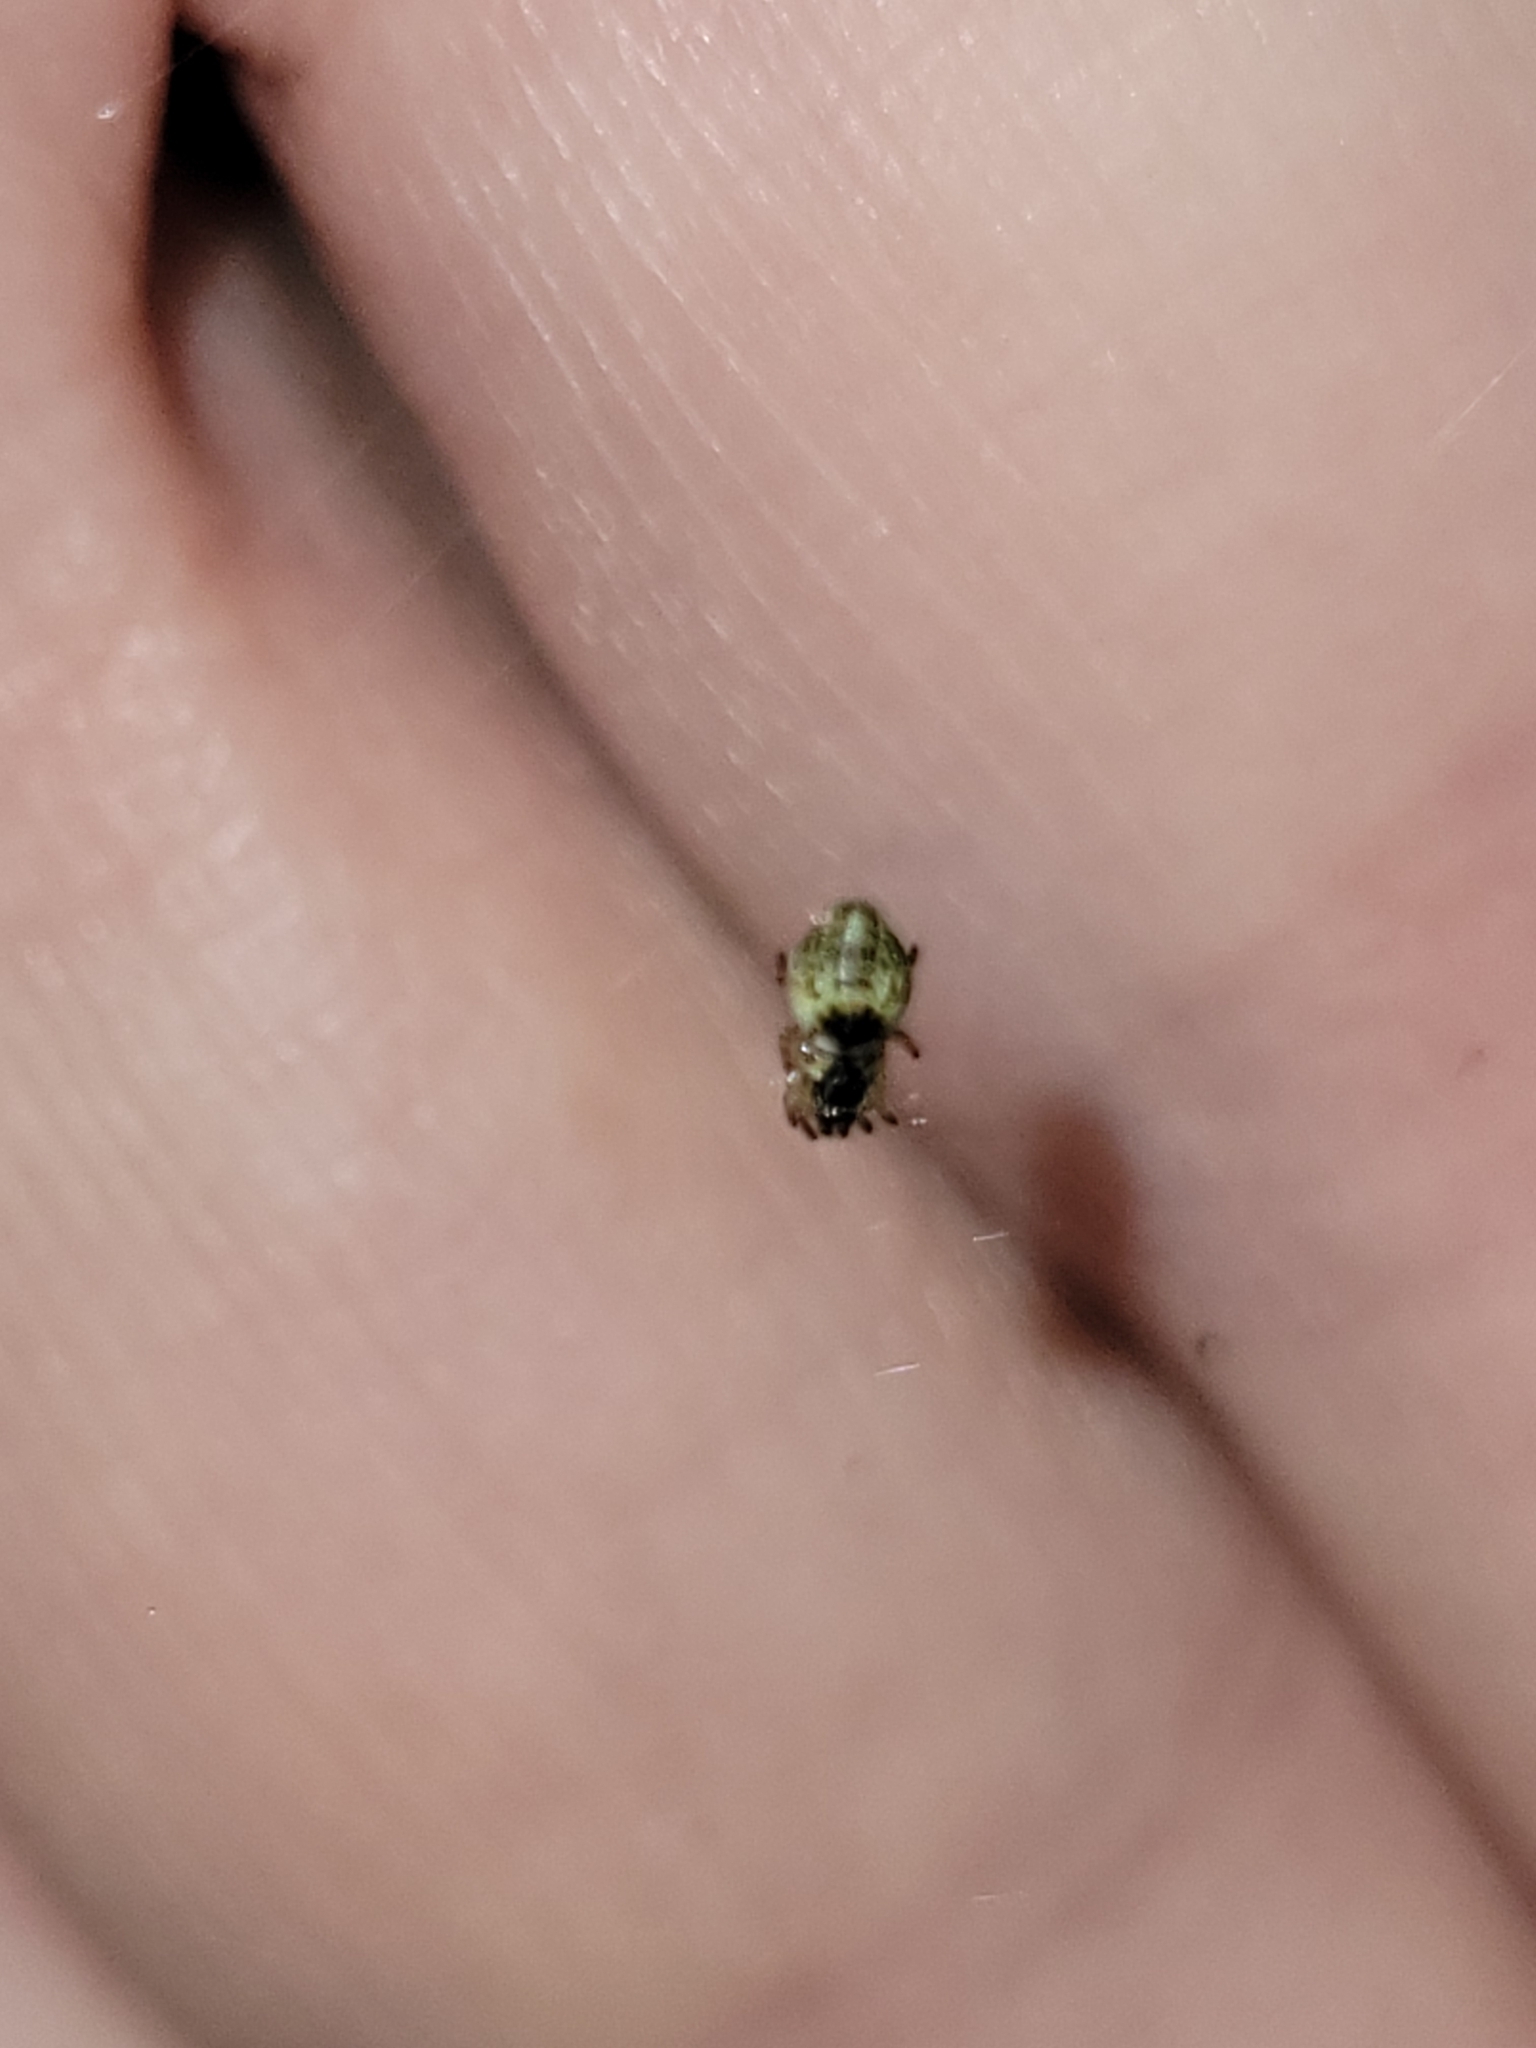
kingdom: Animalia
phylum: Arthropoda
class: Arachnida
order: Araneae
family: Araneidae
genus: Cyclosa
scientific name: Cyclosa conica
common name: Conical trashline orbweaver
